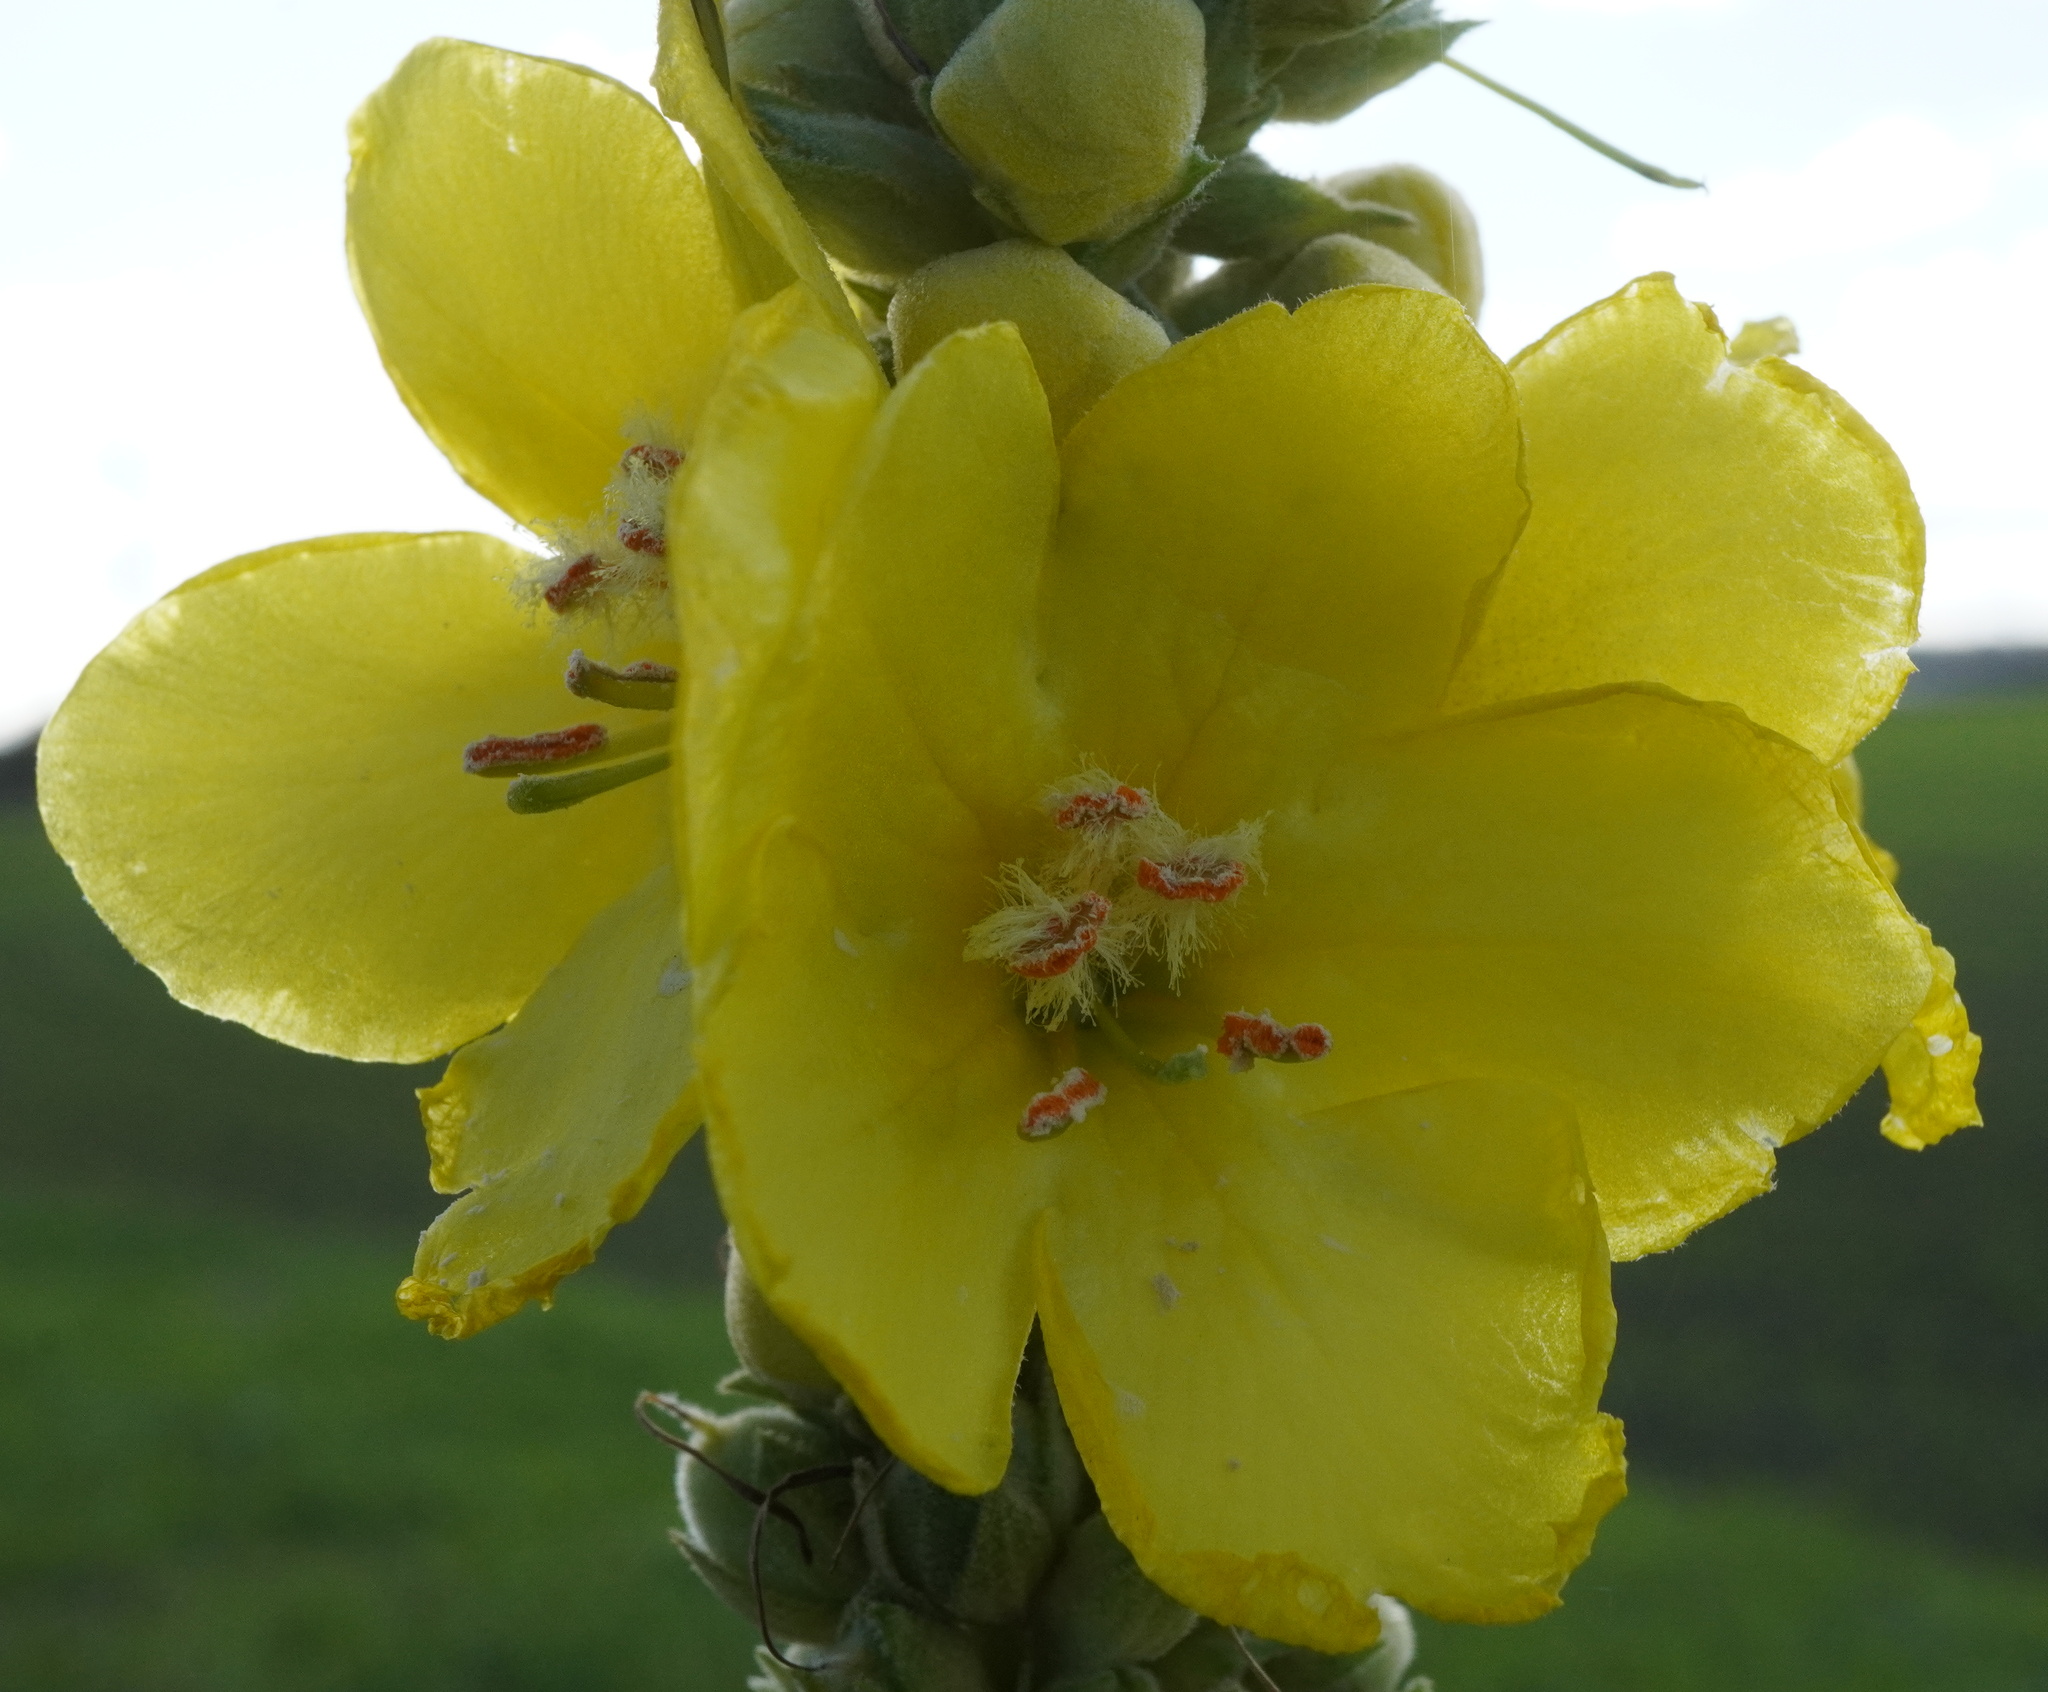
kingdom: Plantae
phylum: Tracheophyta
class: Magnoliopsida
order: Lamiales
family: Scrophulariaceae
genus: Verbascum
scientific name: Verbascum phlomoides
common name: Orange mullein
